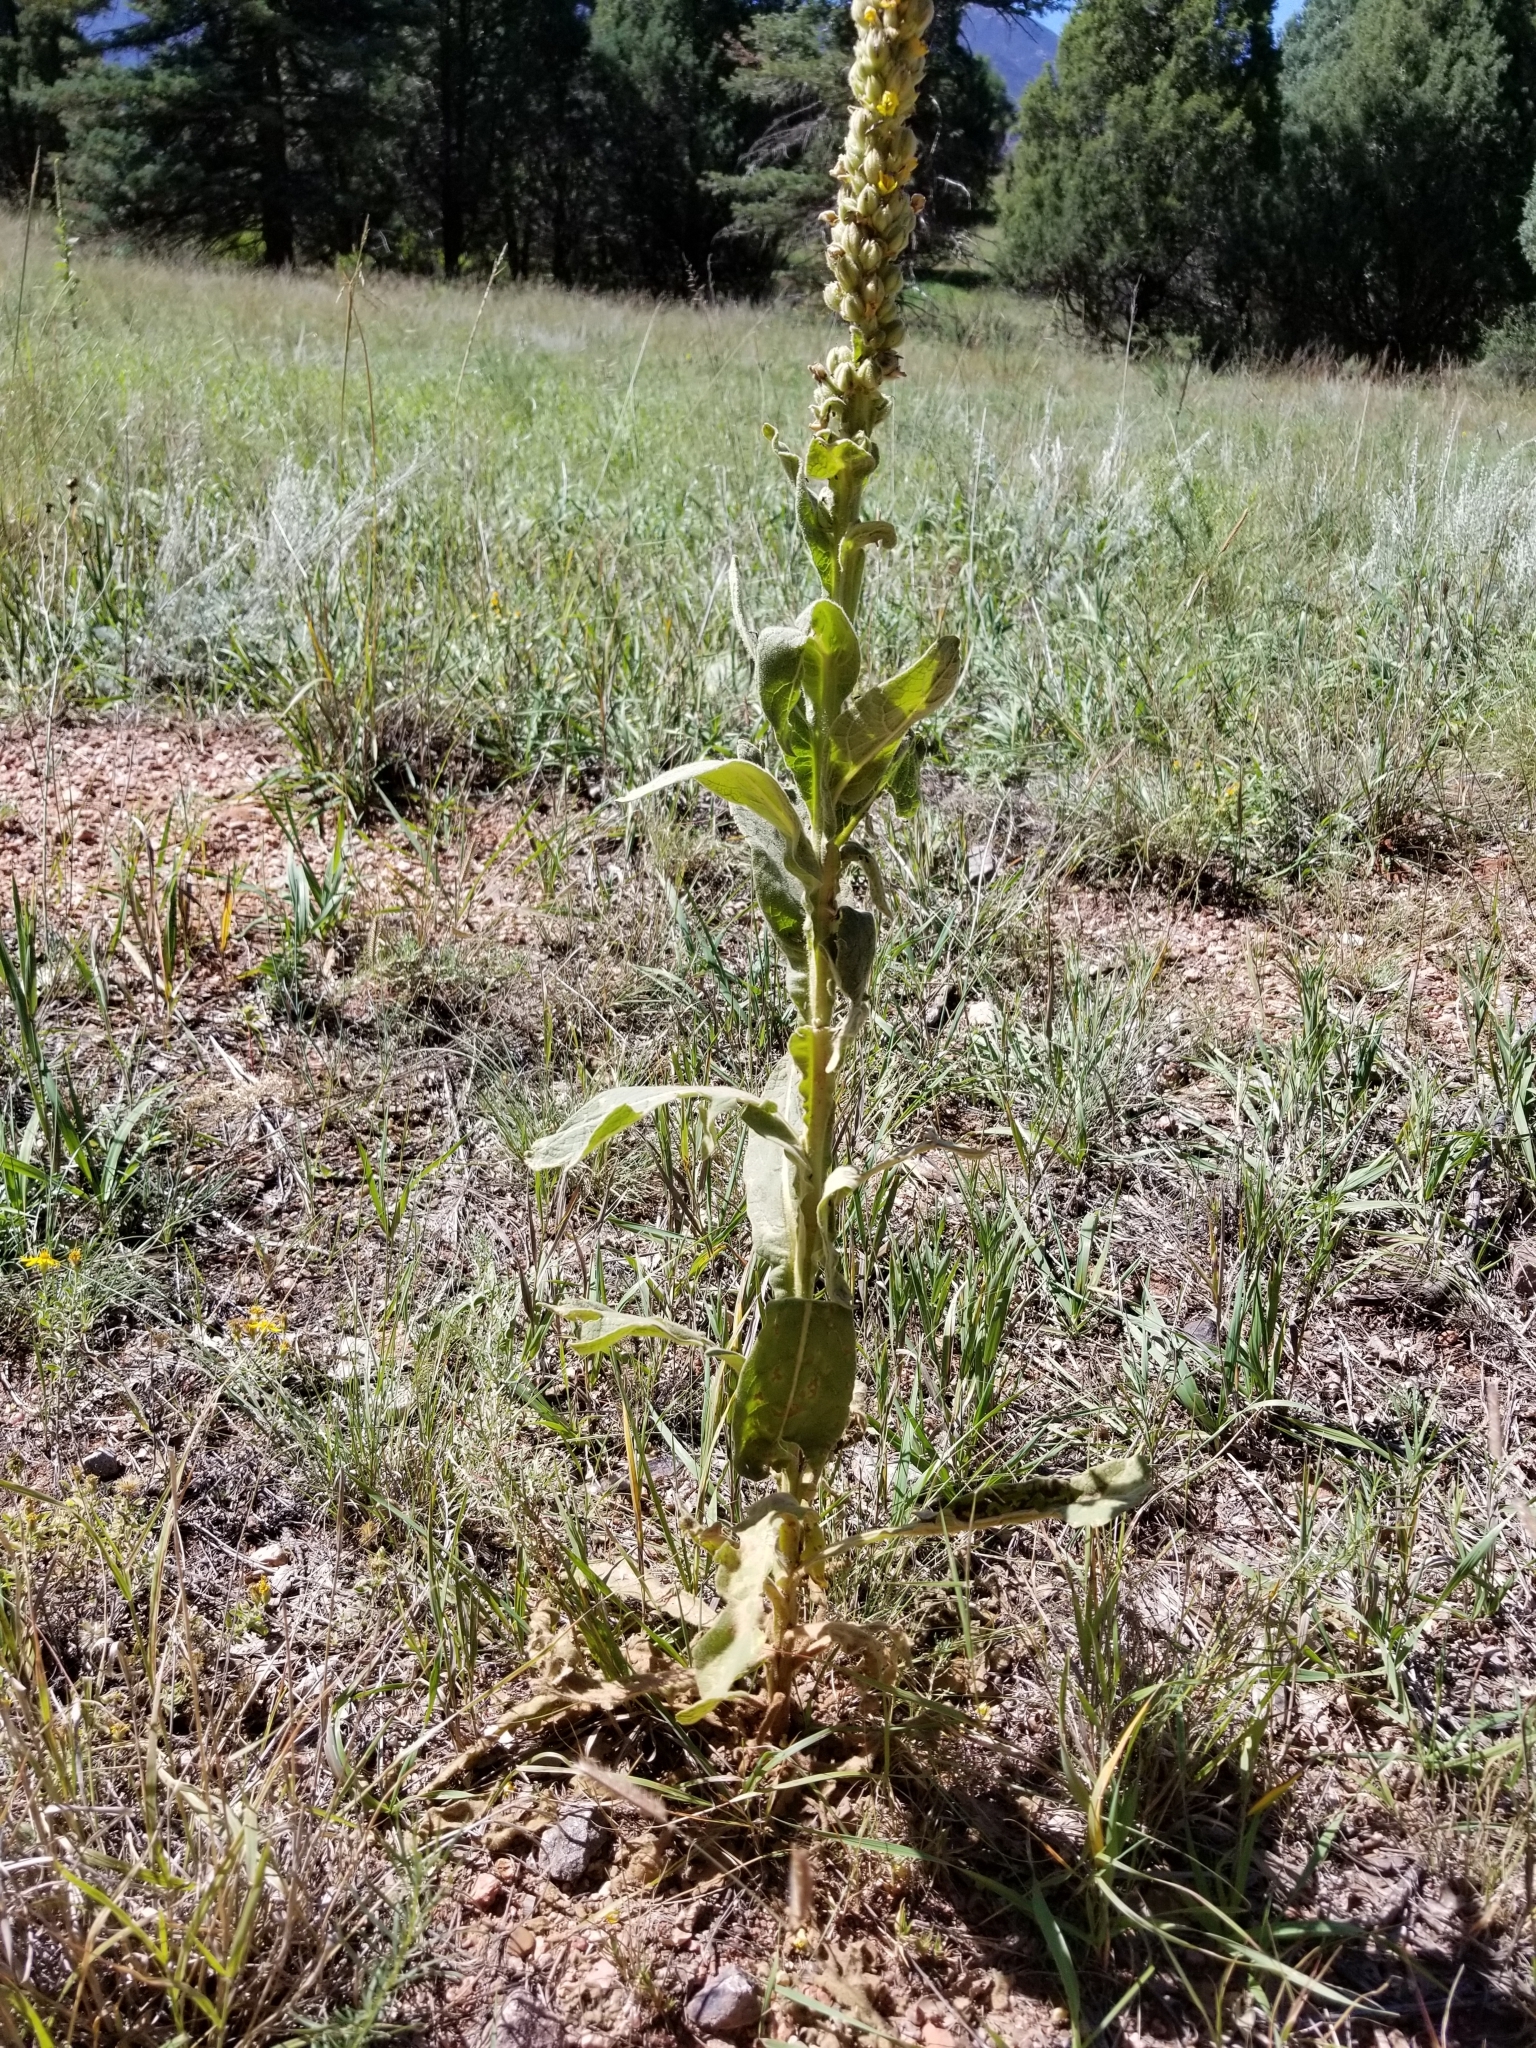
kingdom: Plantae
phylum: Tracheophyta
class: Magnoliopsida
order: Lamiales
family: Scrophulariaceae
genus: Verbascum
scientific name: Verbascum thapsus
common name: Common mullein
